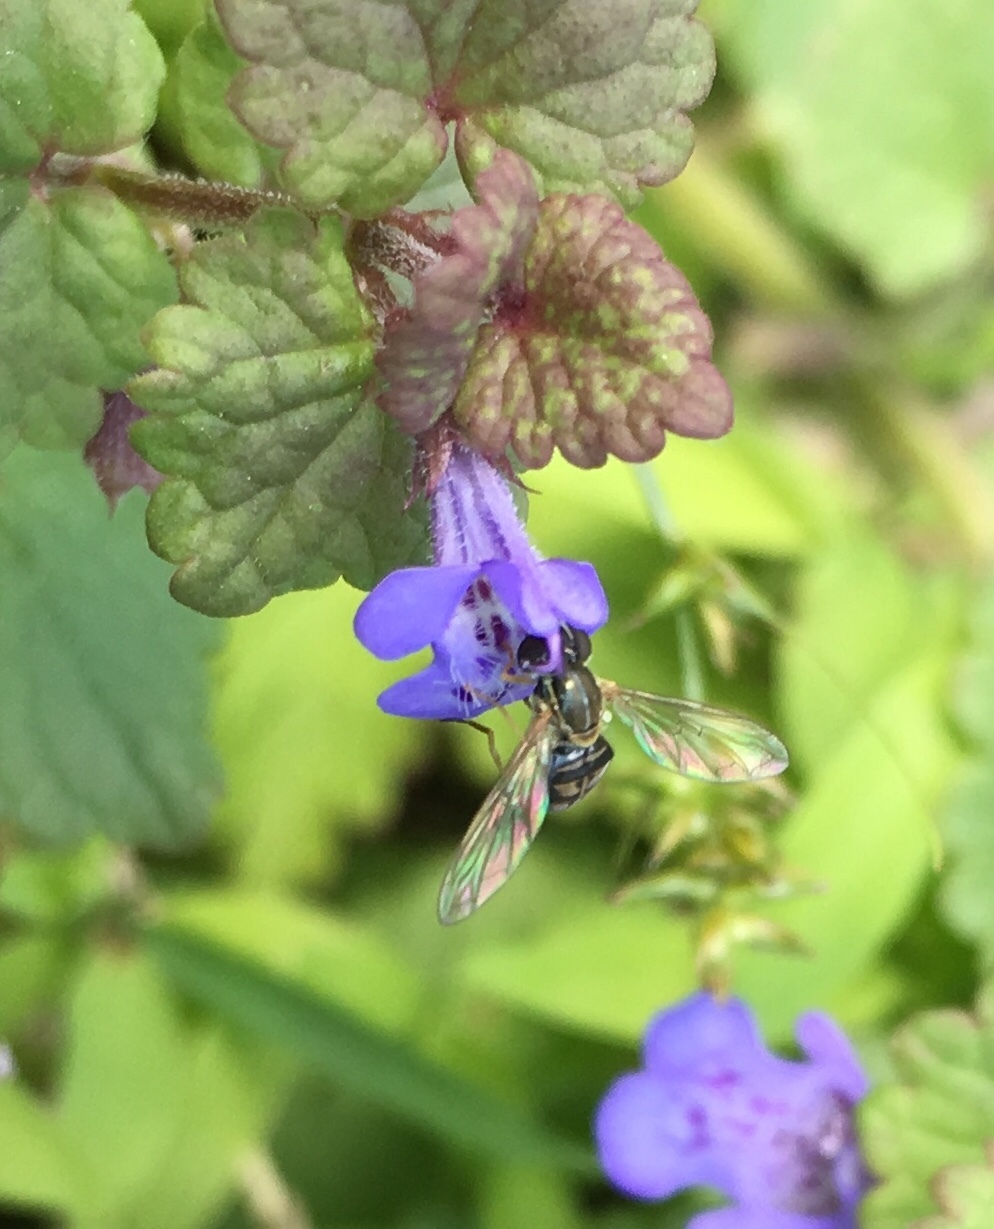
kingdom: Animalia
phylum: Arthropoda
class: Insecta
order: Diptera
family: Syrphidae
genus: Toxomerus
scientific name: Toxomerus marginatus
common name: Syrphid fly
